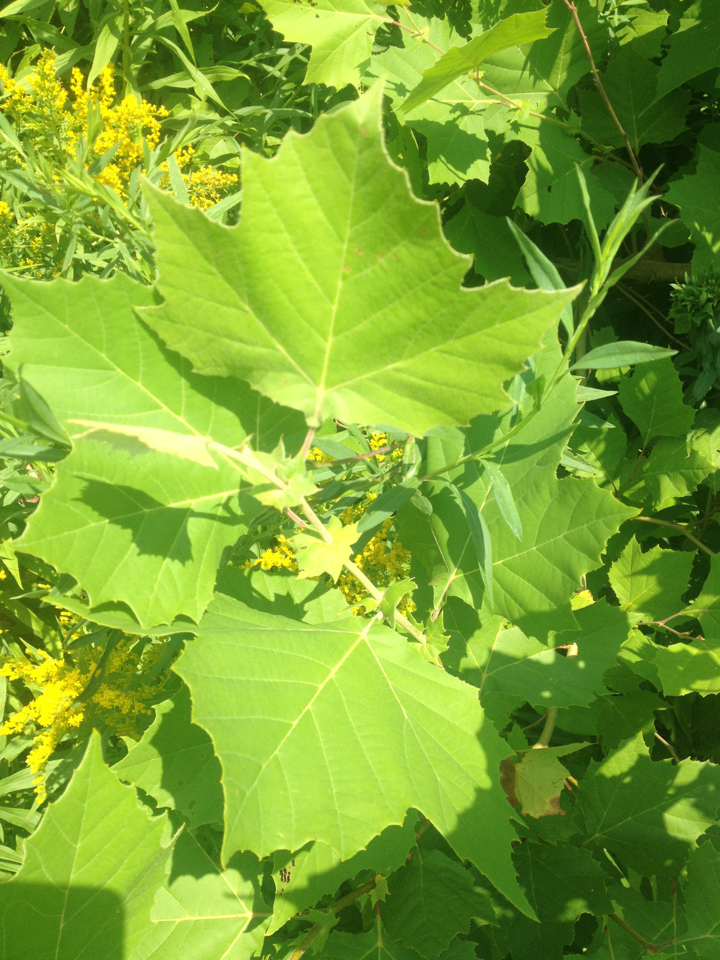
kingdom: Plantae
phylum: Tracheophyta
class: Magnoliopsida
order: Proteales
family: Platanaceae
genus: Platanus
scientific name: Platanus occidentalis
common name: American sycamore
